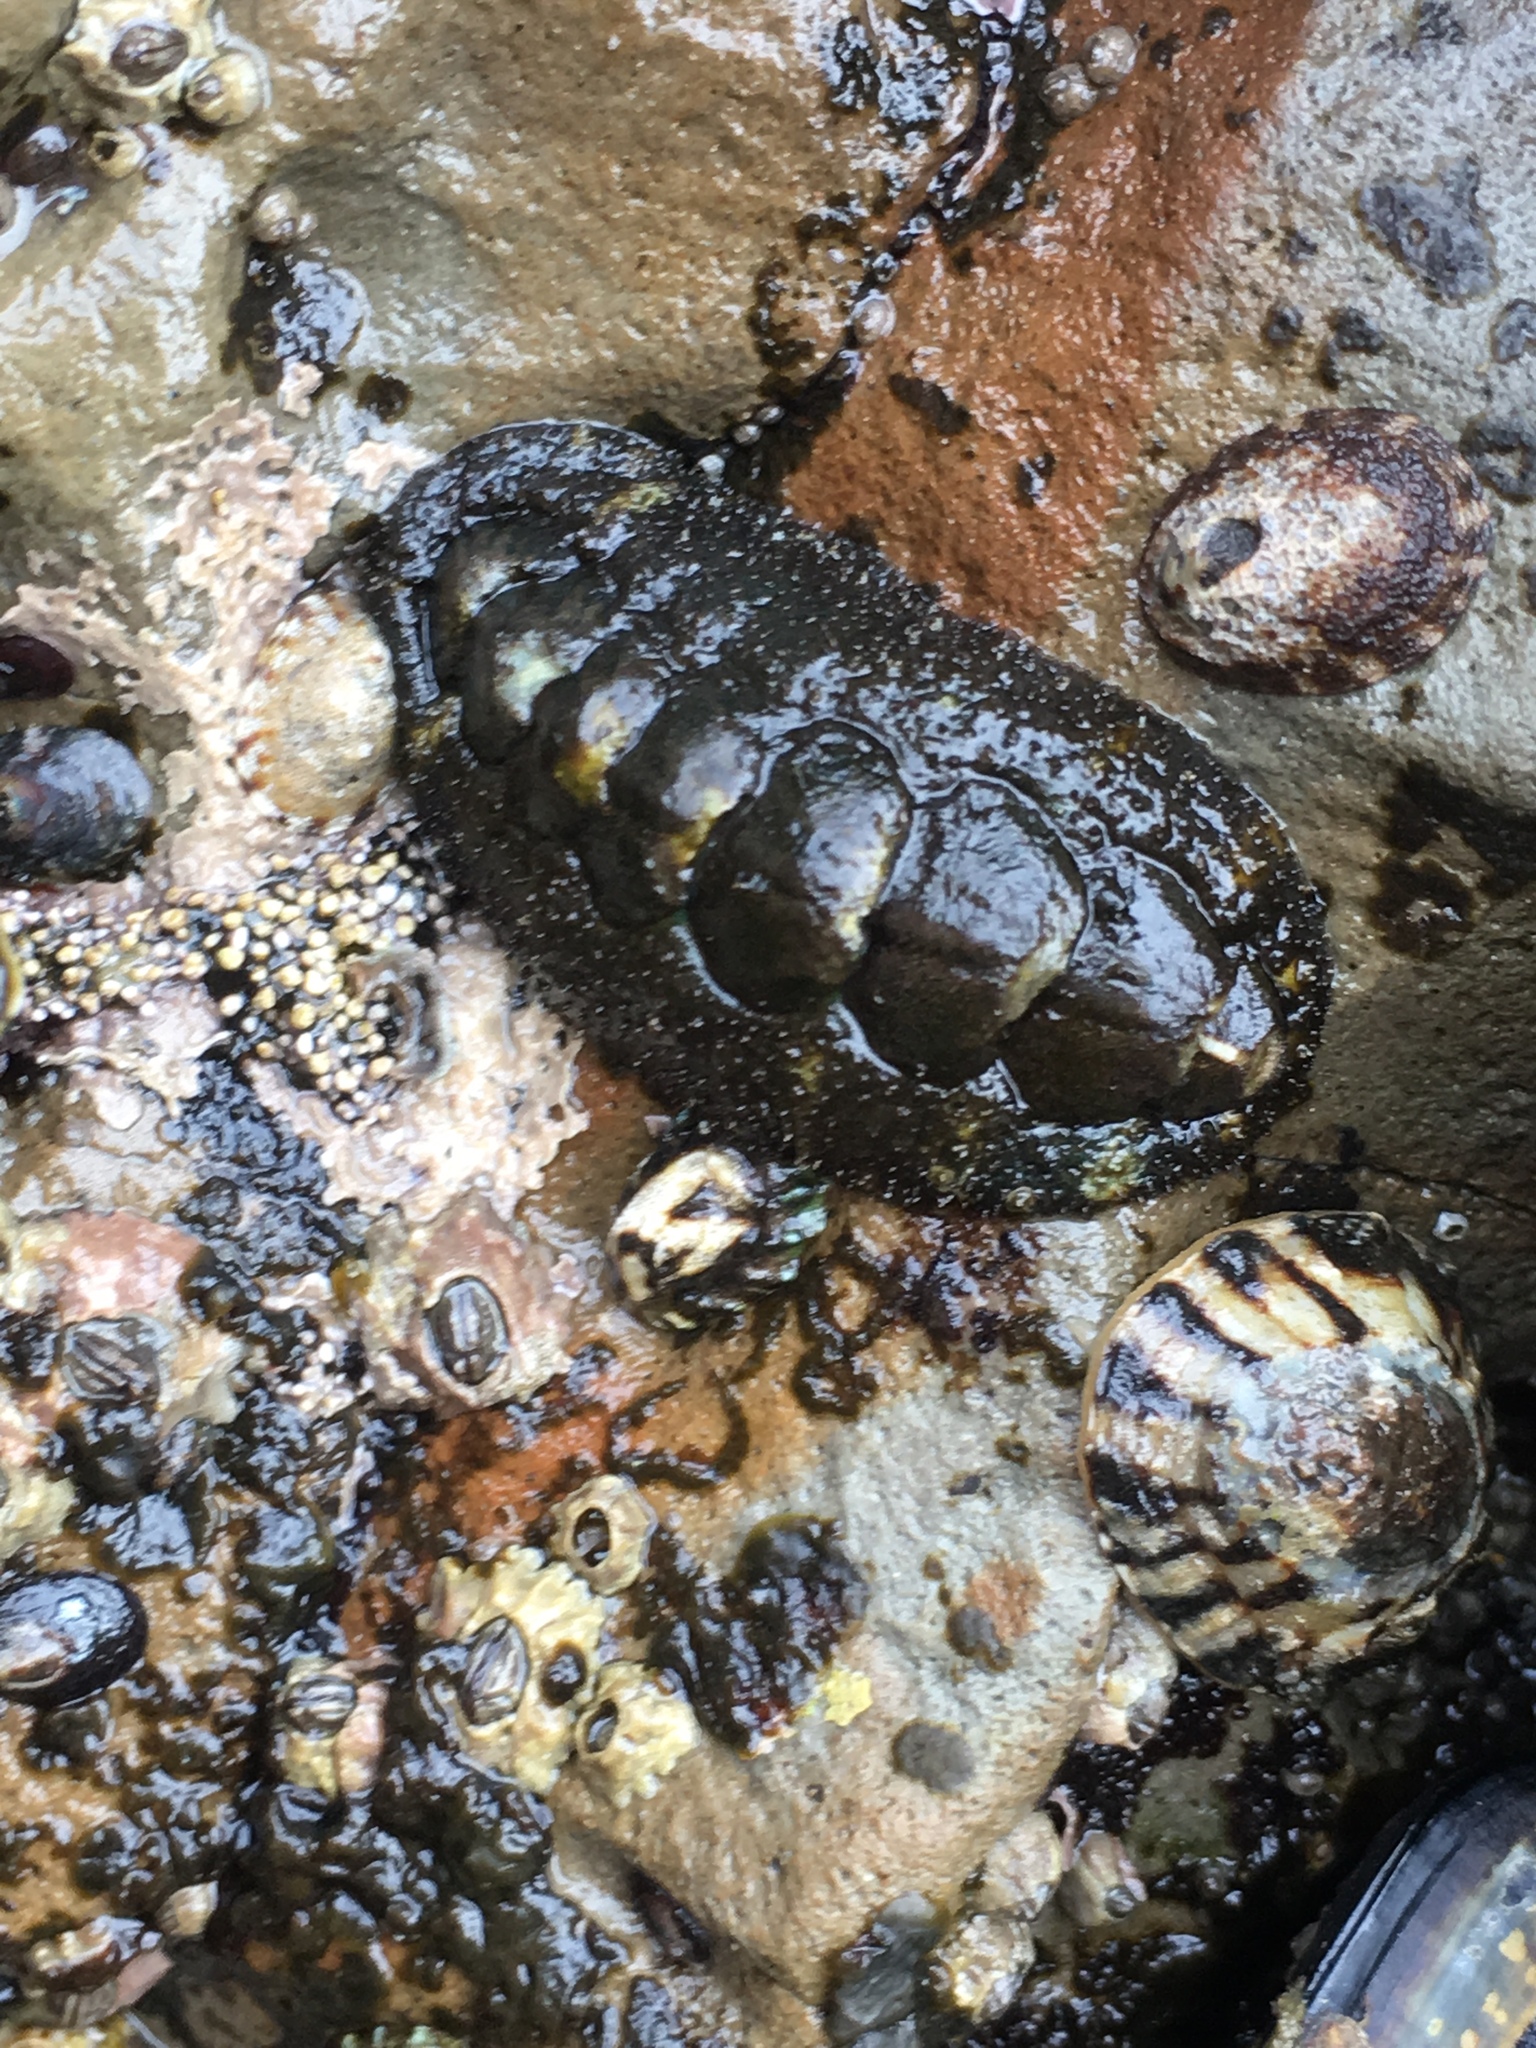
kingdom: Animalia
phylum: Mollusca
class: Polyplacophora
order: Chitonida
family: Tonicellidae
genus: Nuttallina
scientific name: Nuttallina californica
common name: California nuttall chiton
